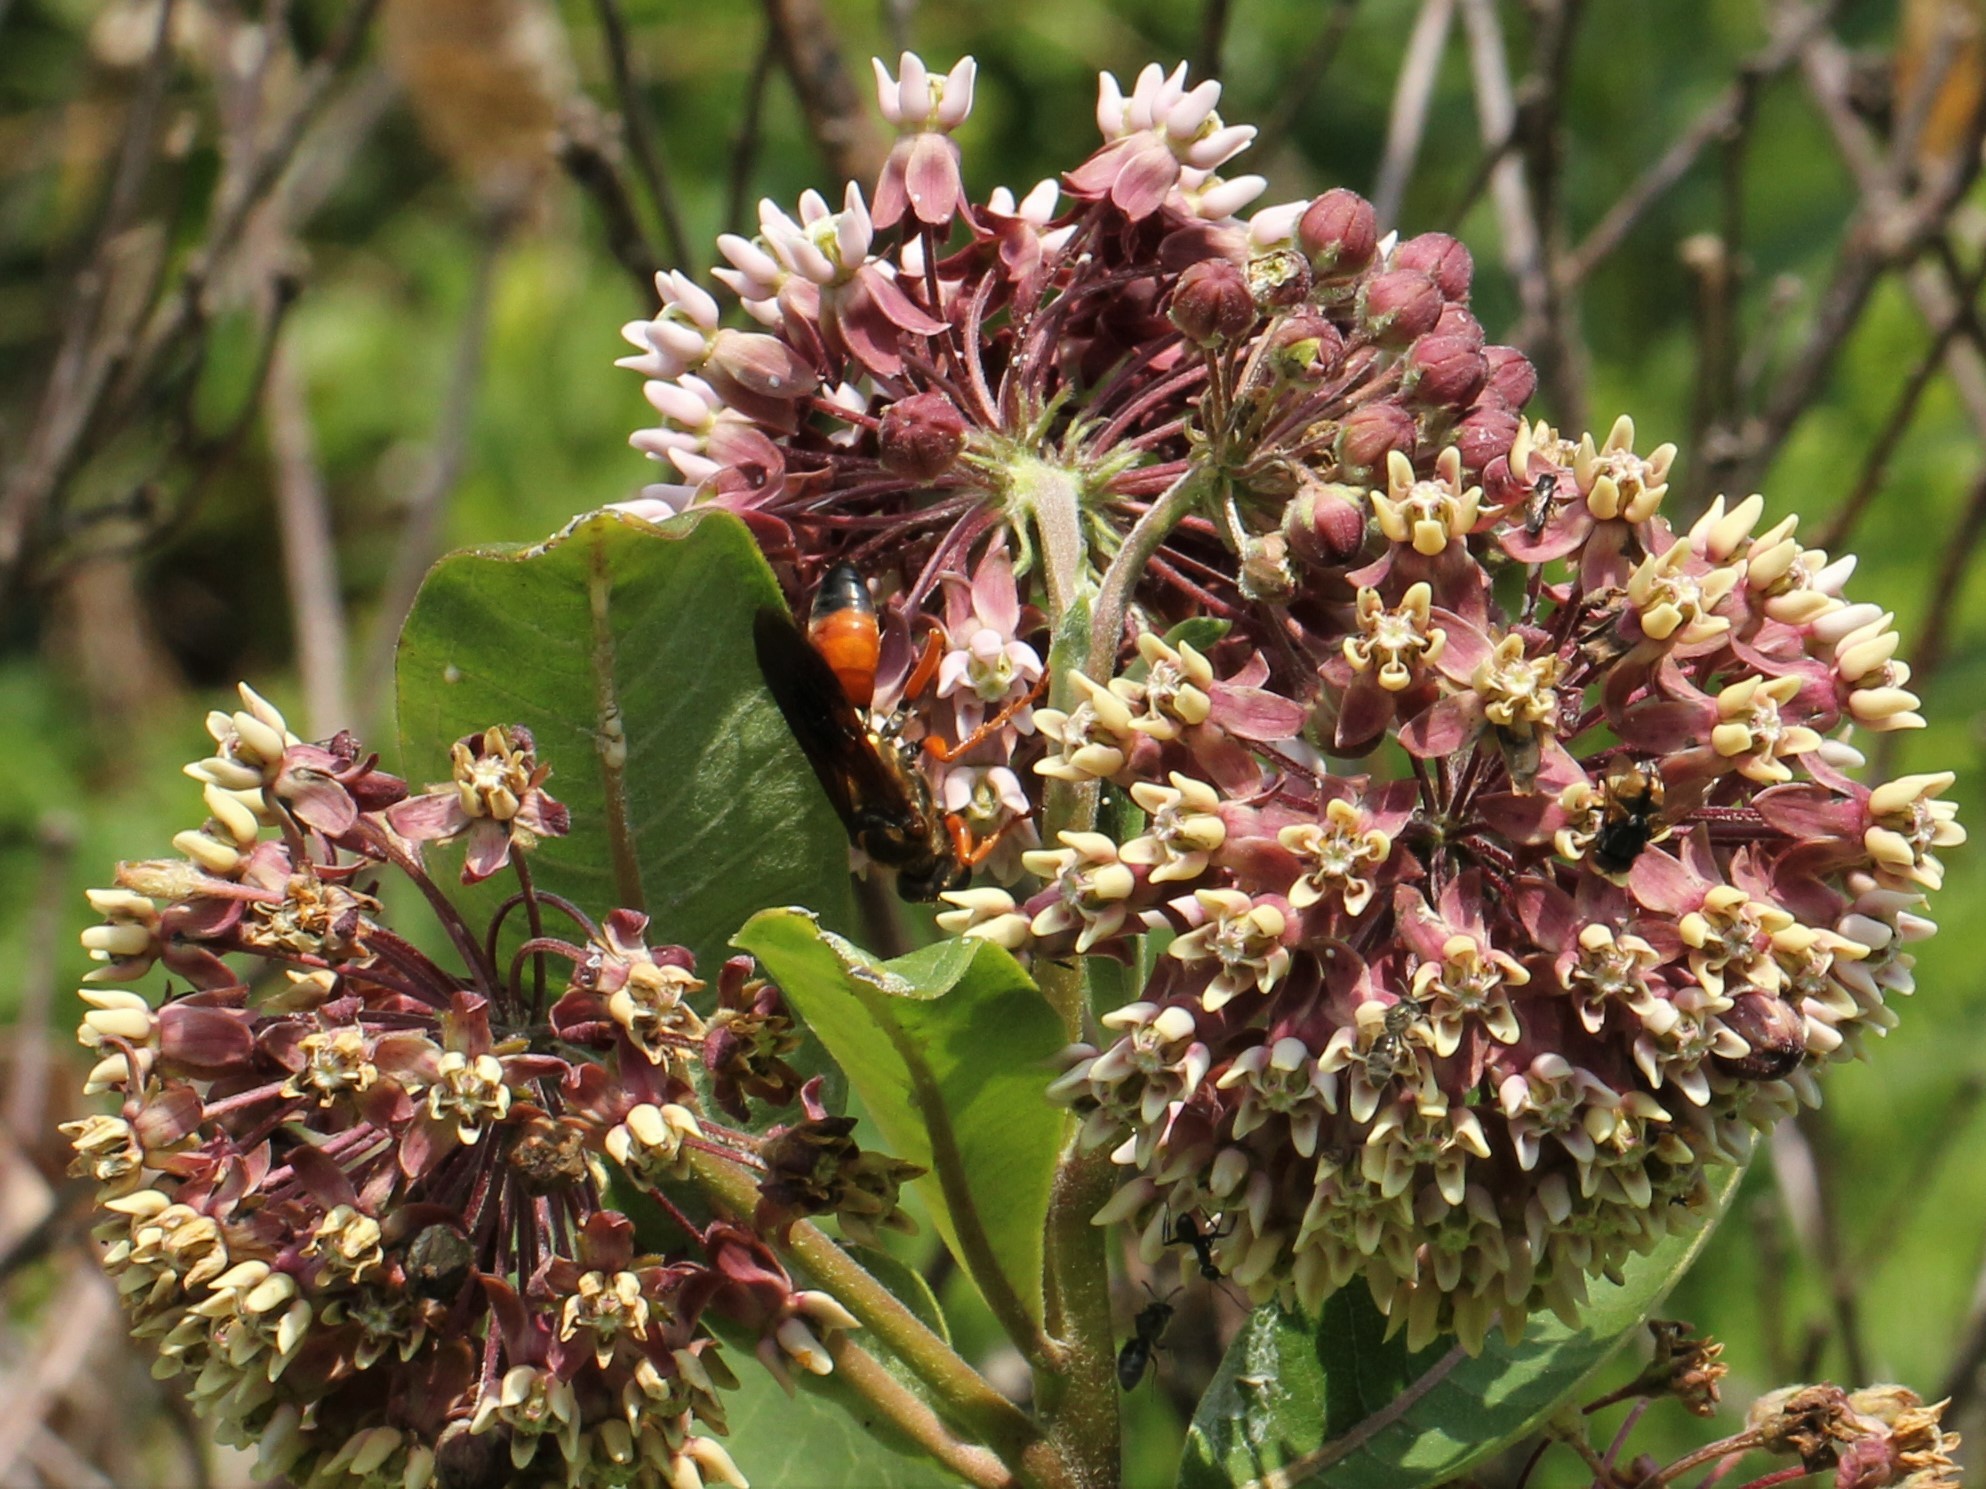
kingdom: Animalia
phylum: Arthropoda
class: Insecta
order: Hymenoptera
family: Sphecidae
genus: Sphex
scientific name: Sphex ichneumoneus
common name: Great golden digger wasp
